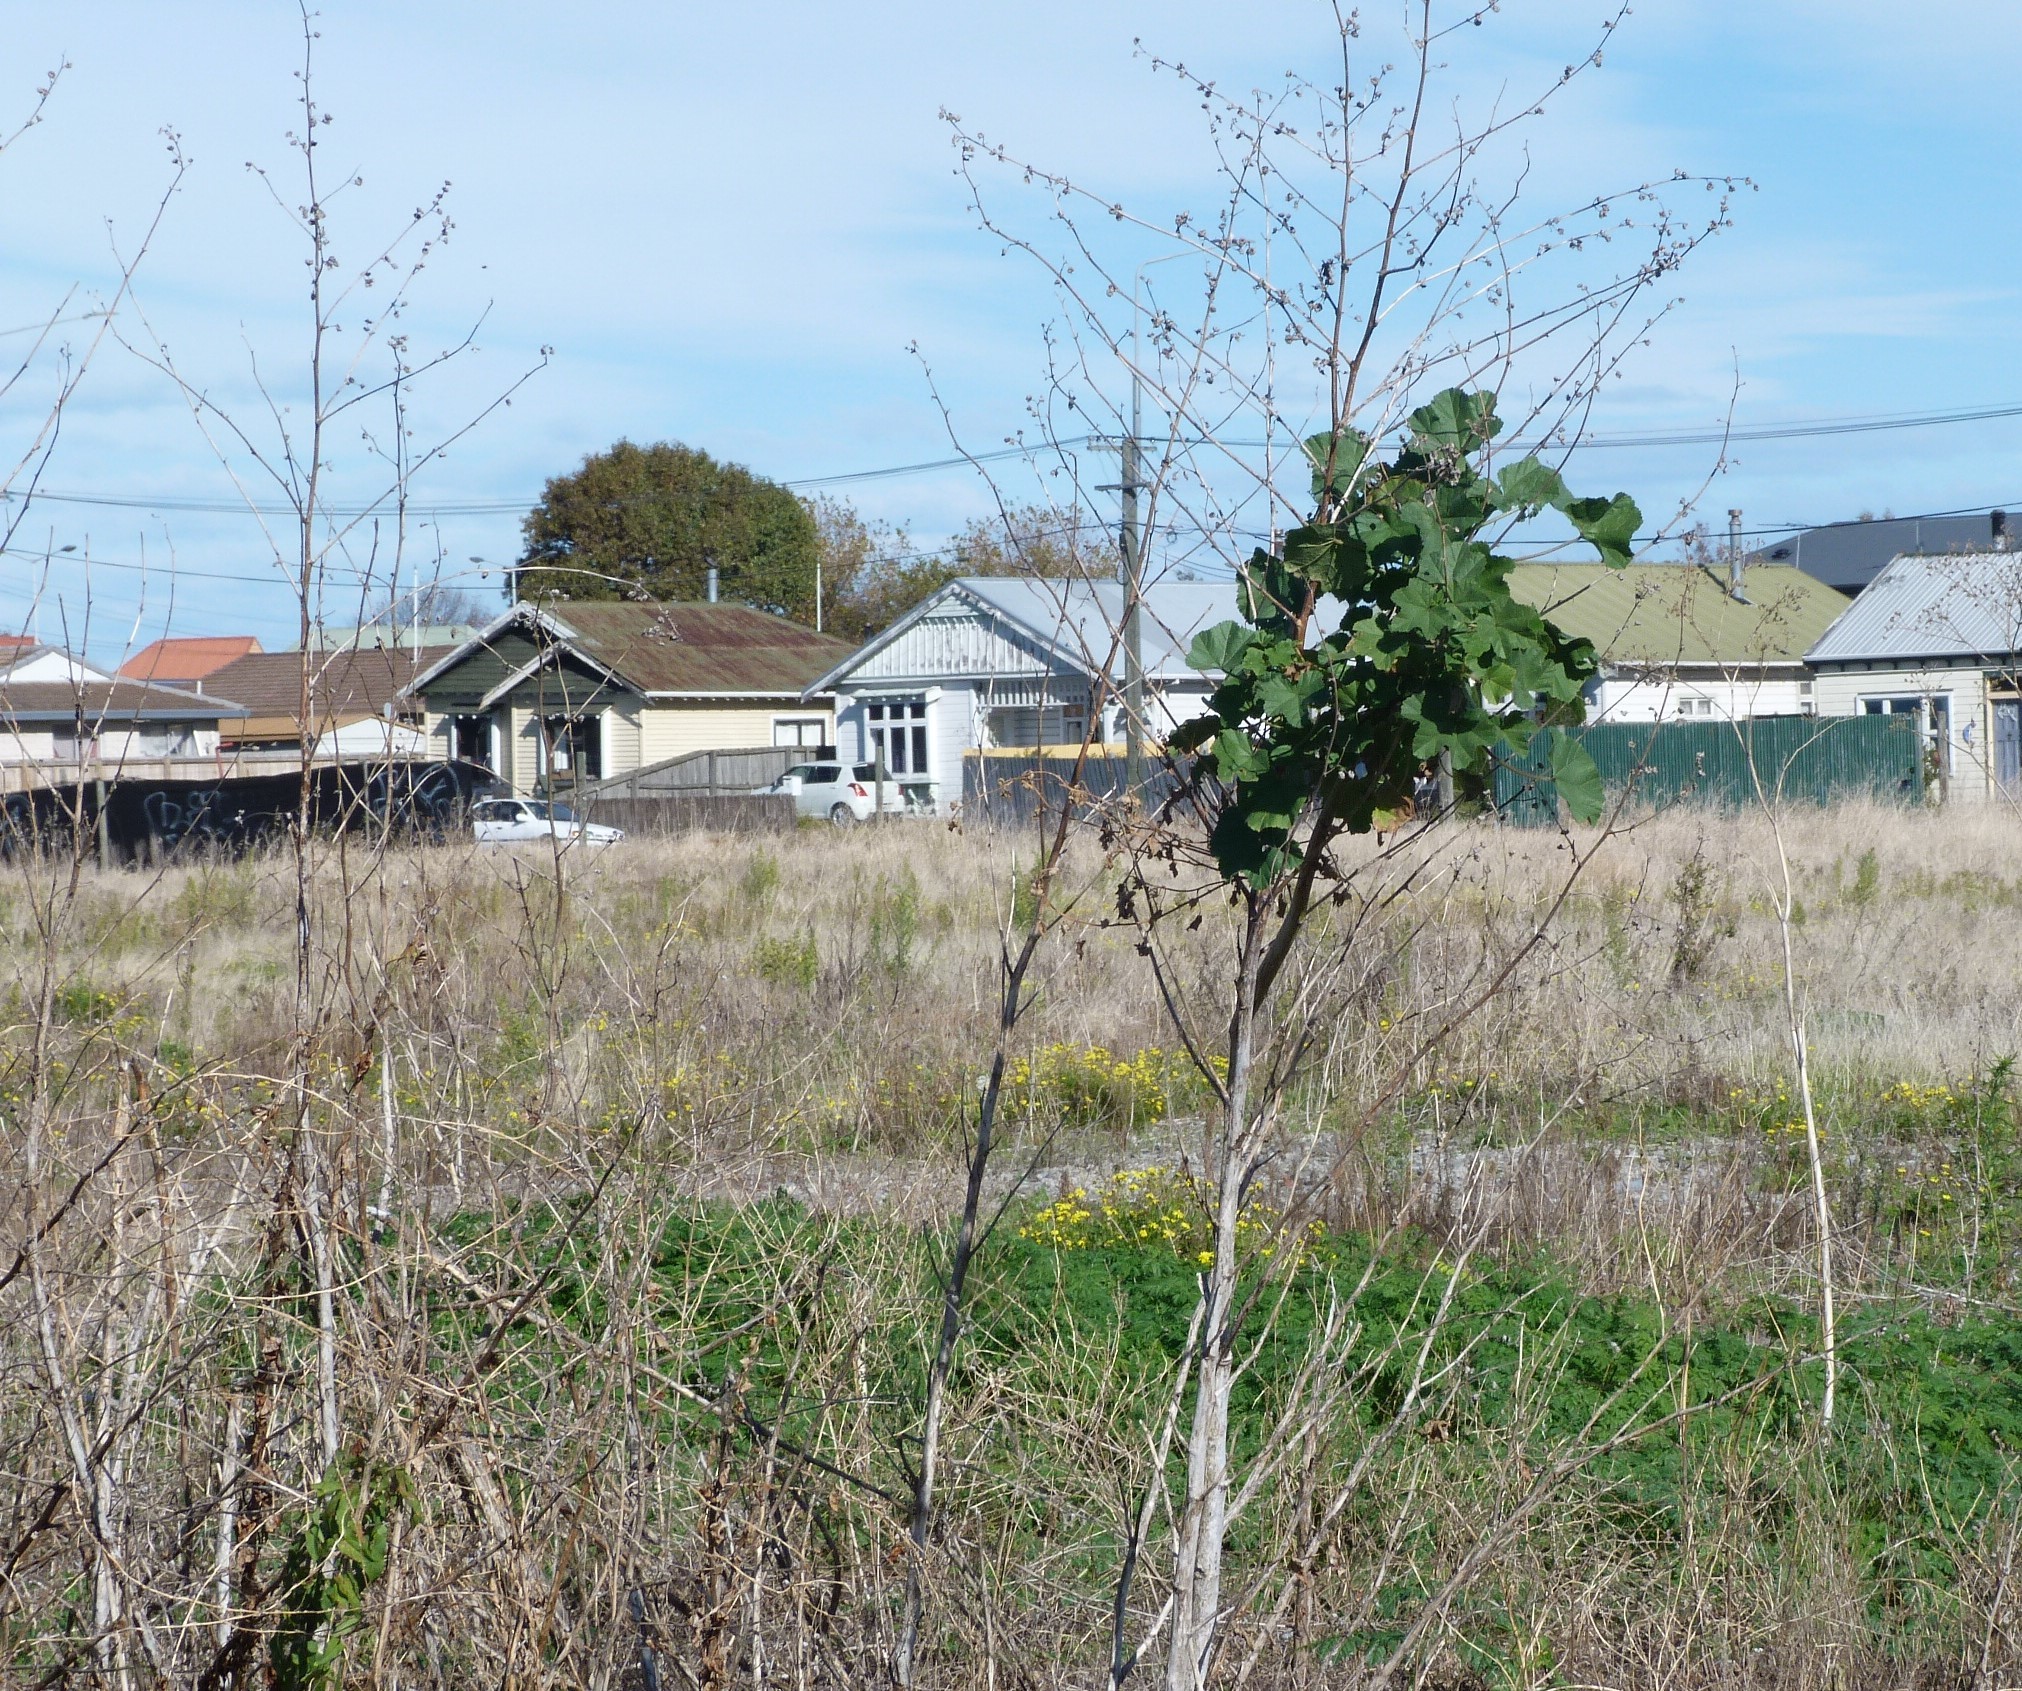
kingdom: Plantae
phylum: Tracheophyta
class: Magnoliopsida
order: Malvales
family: Malvaceae
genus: Malva
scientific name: Malva arborea
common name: Tree mallow
